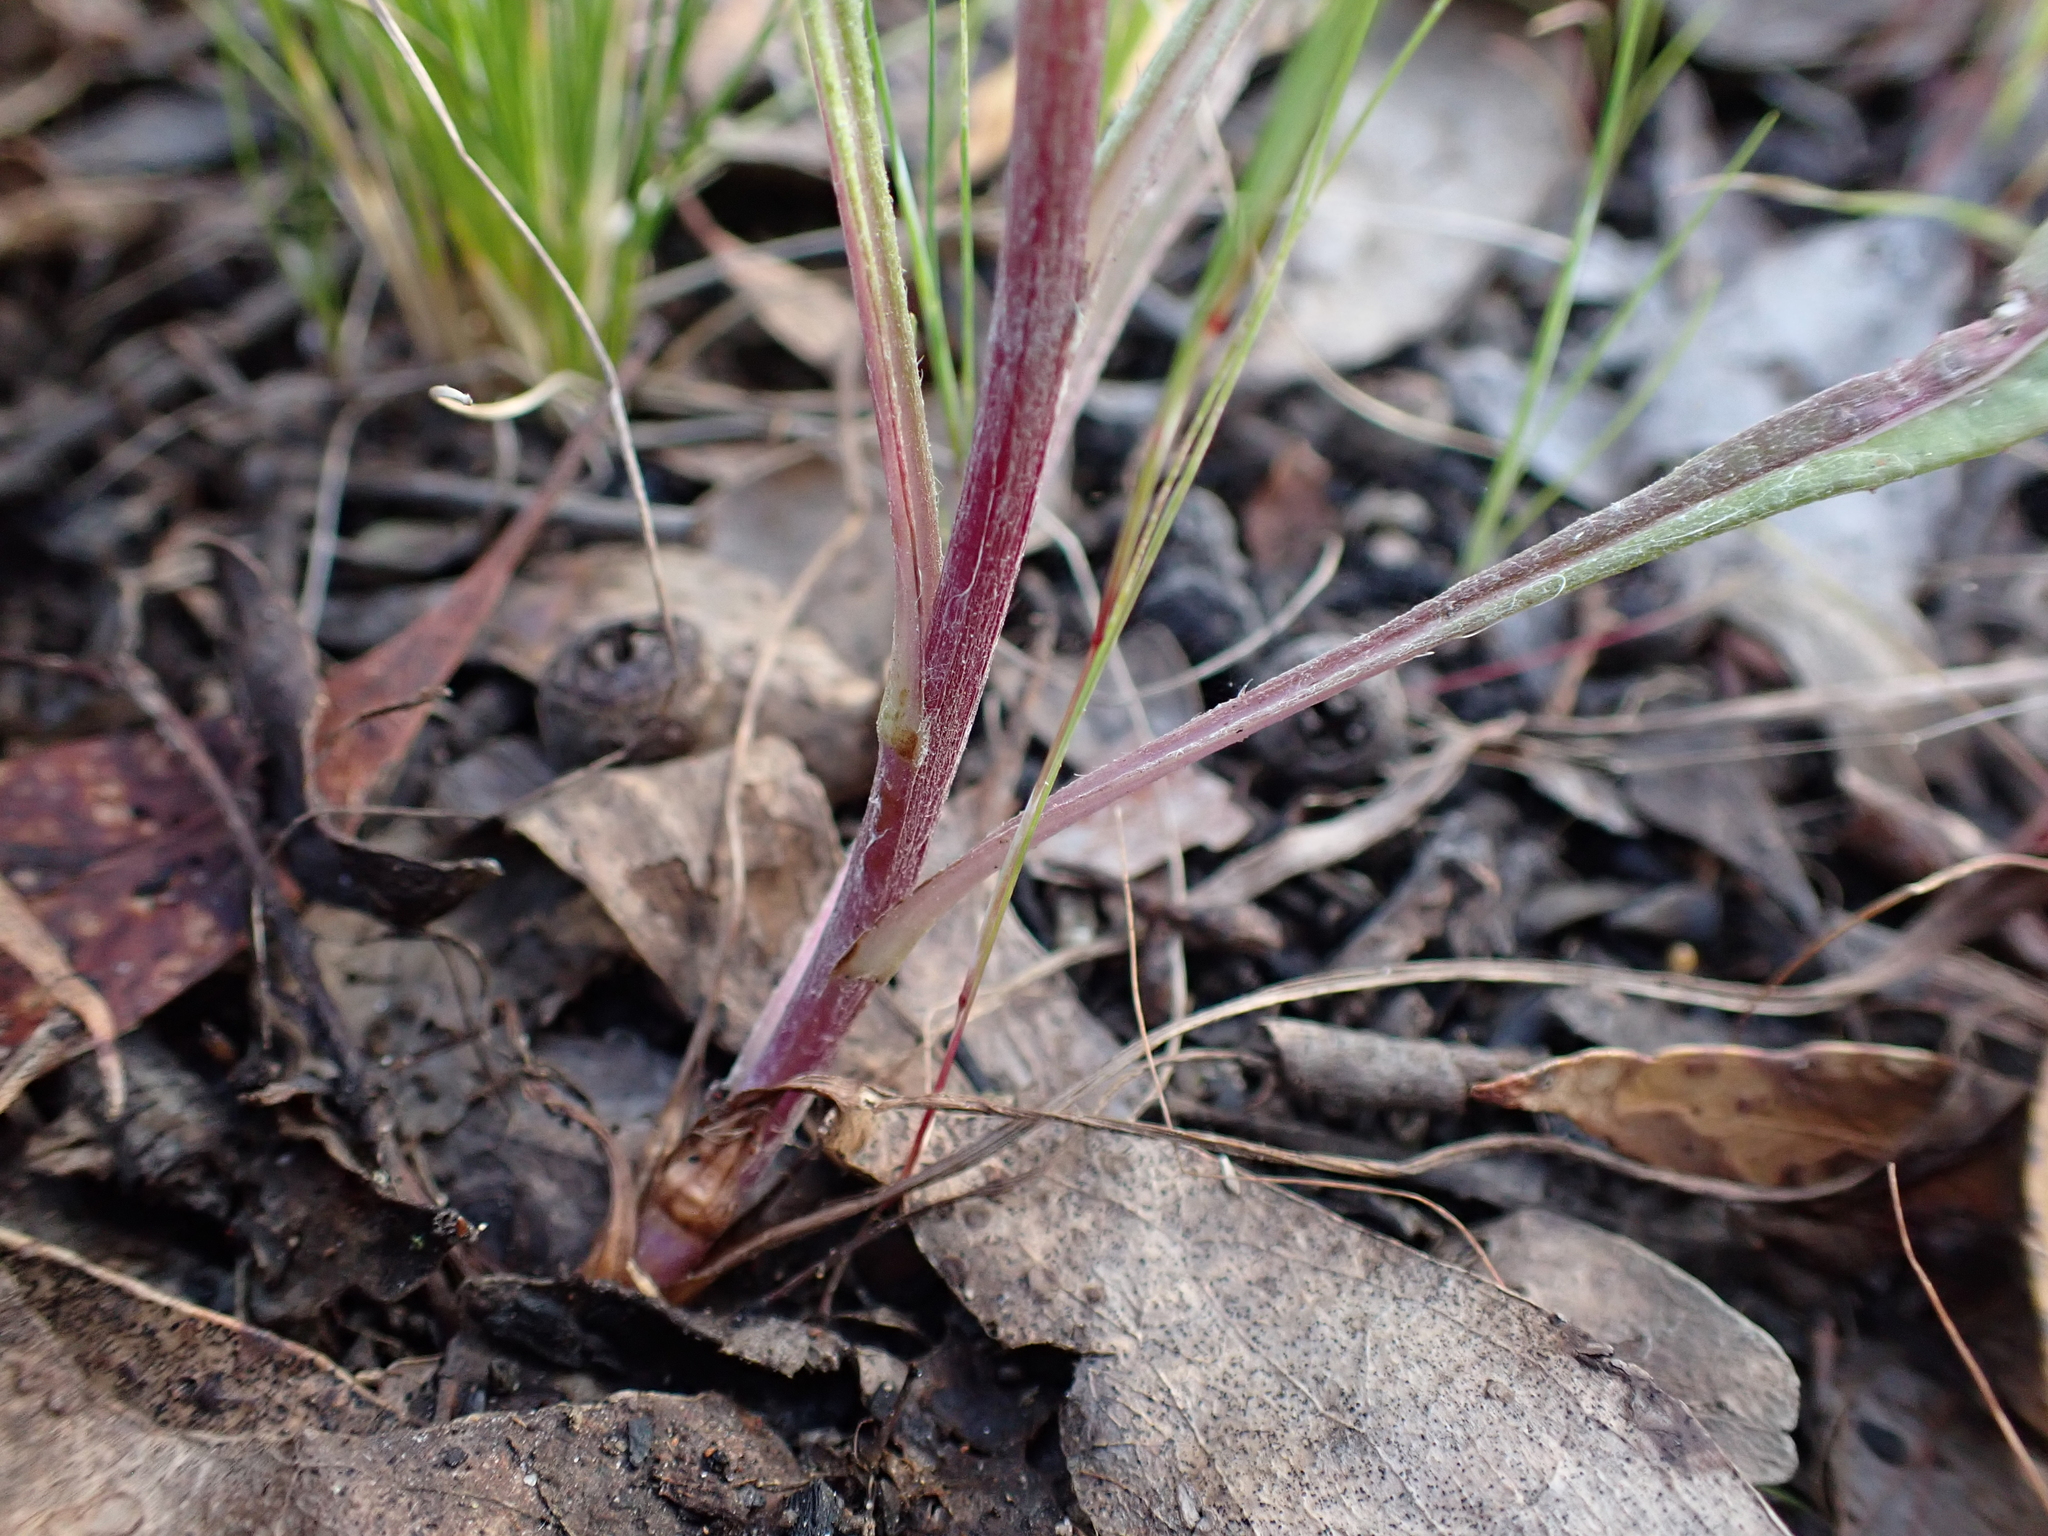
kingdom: Plantae
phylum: Tracheophyta
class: Magnoliopsida
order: Asterales
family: Asteraceae
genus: Senecio
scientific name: Senecio phelleus
